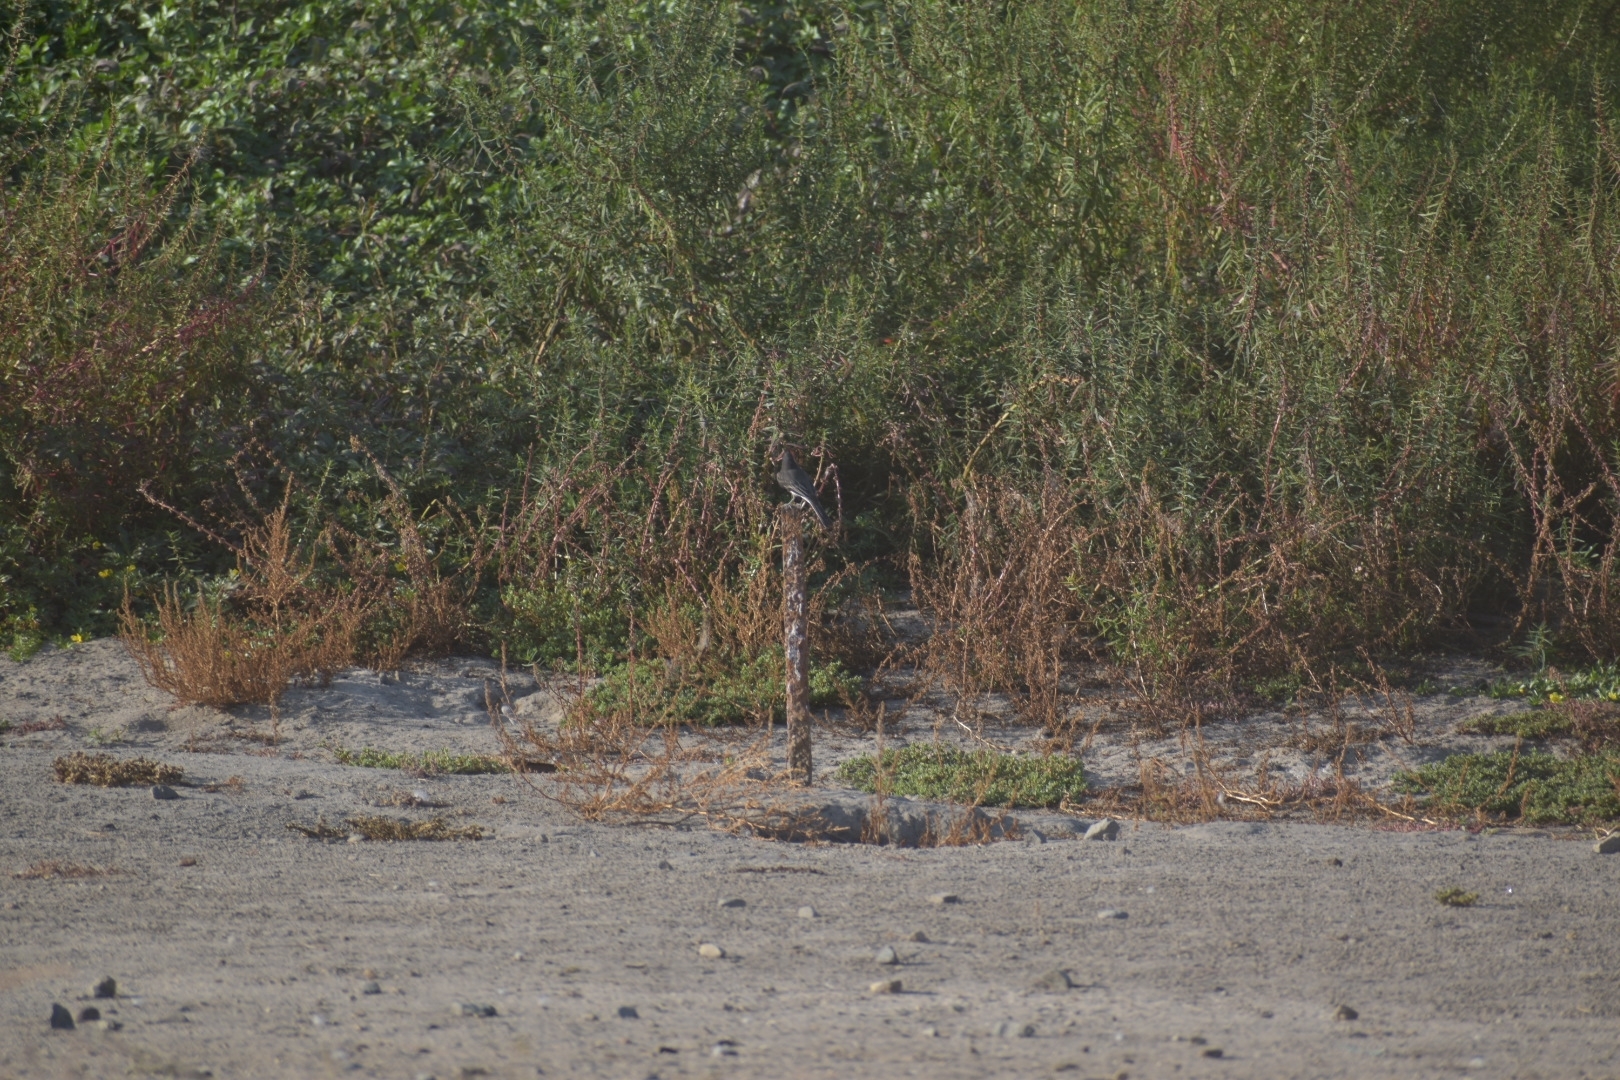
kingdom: Animalia
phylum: Chordata
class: Aves
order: Passeriformes
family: Tyrannidae
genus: Sayornis
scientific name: Sayornis nigricans
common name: Black phoebe
